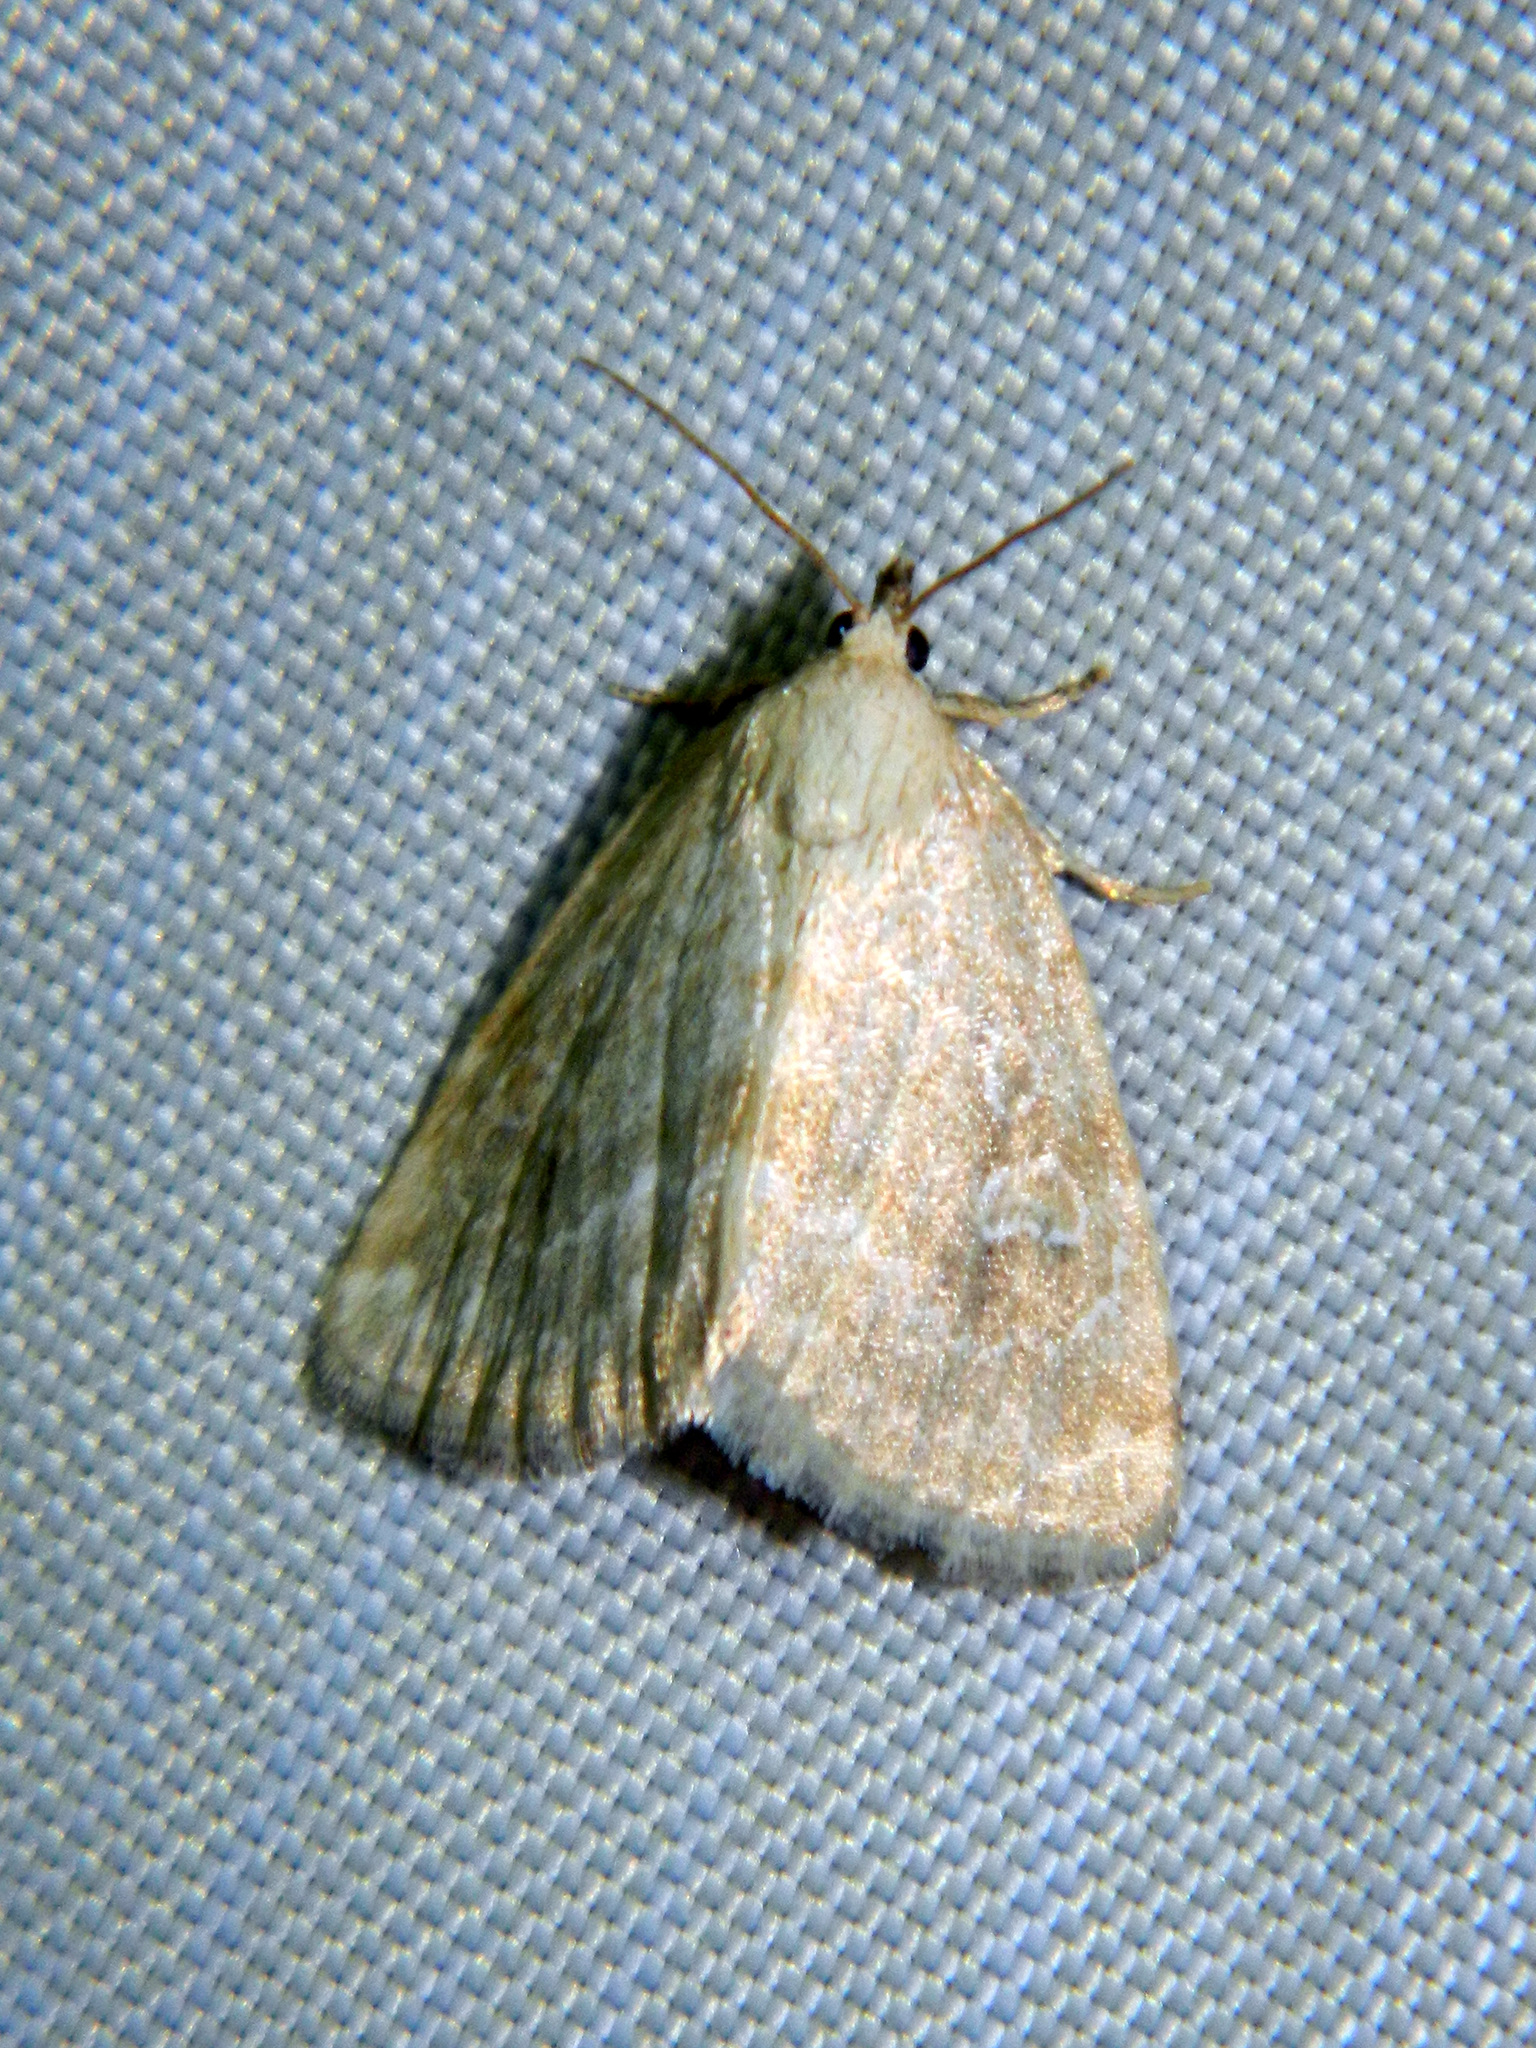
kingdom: Animalia
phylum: Arthropoda
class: Insecta
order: Lepidoptera
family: Noctuidae
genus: Protodeltote
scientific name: Protodeltote albidula
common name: Pale glyph
